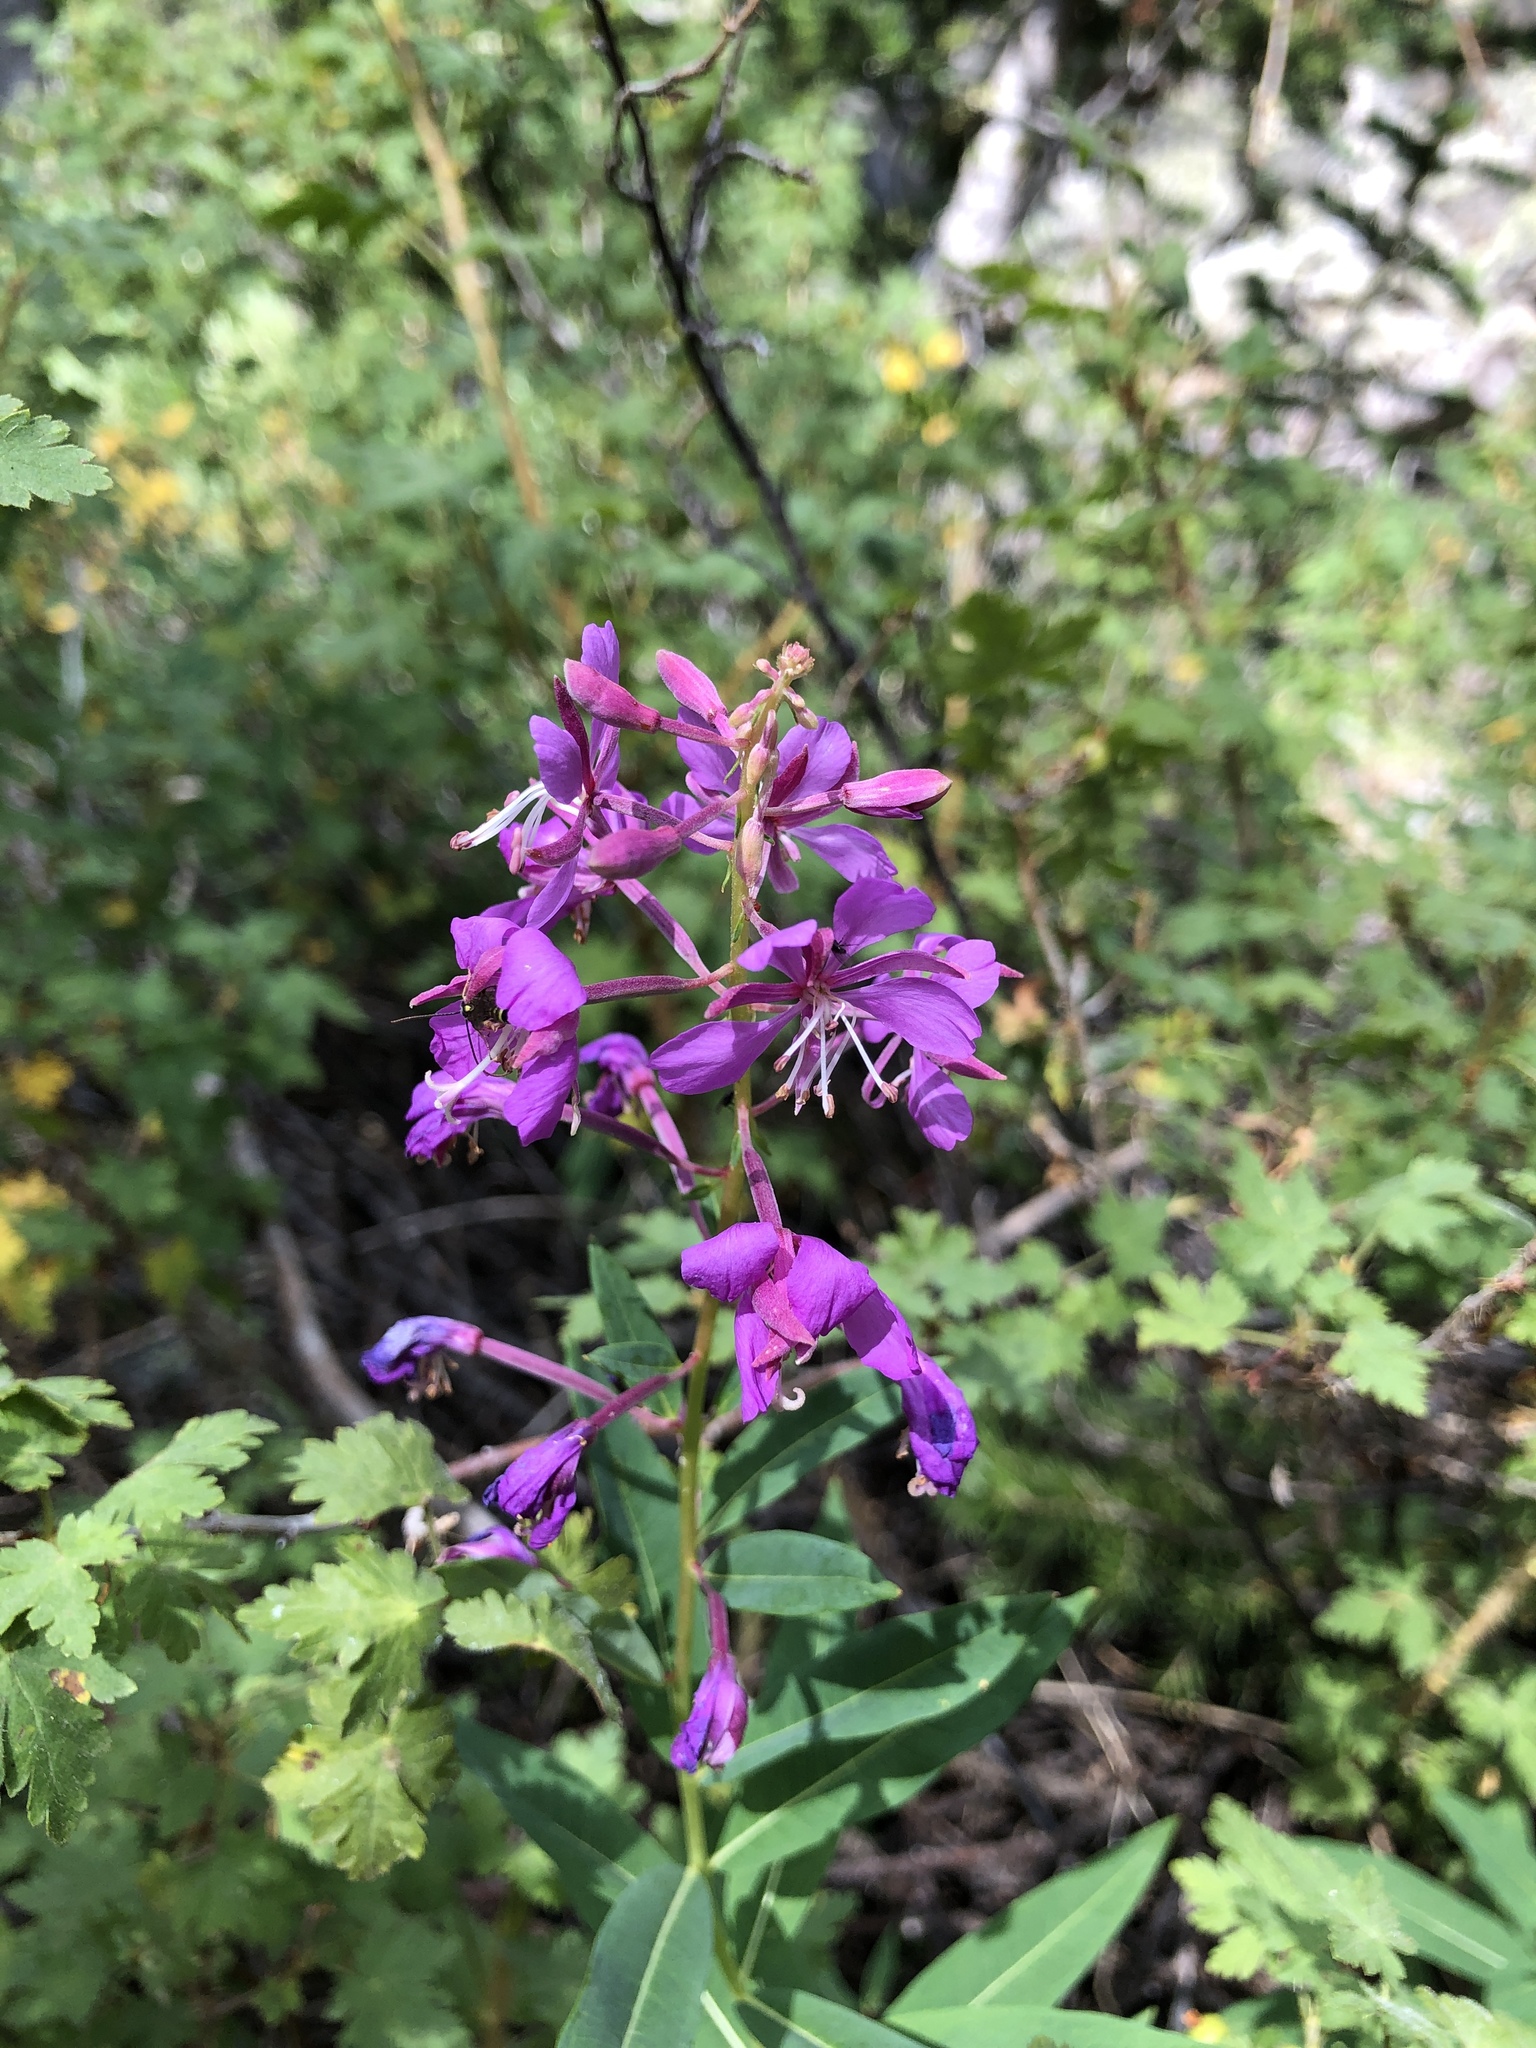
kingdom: Plantae
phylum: Tracheophyta
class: Magnoliopsida
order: Myrtales
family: Onagraceae
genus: Chamaenerion
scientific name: Chamaenerion angustifolium
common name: Fireweed
